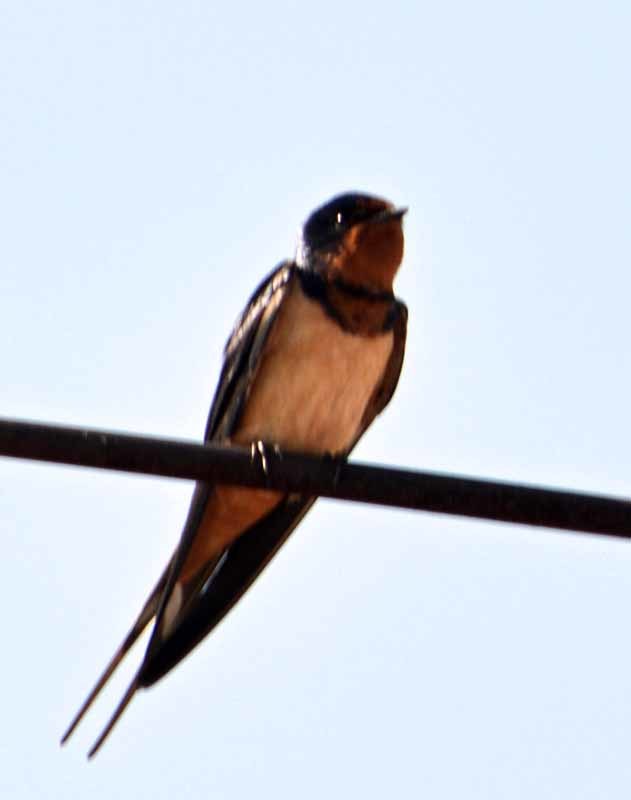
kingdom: Animalia
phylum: Chordata
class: Aves
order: Passeriformes
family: Hirundinidae
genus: Hirundo
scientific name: Hirundo rustica
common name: Barn swallow
